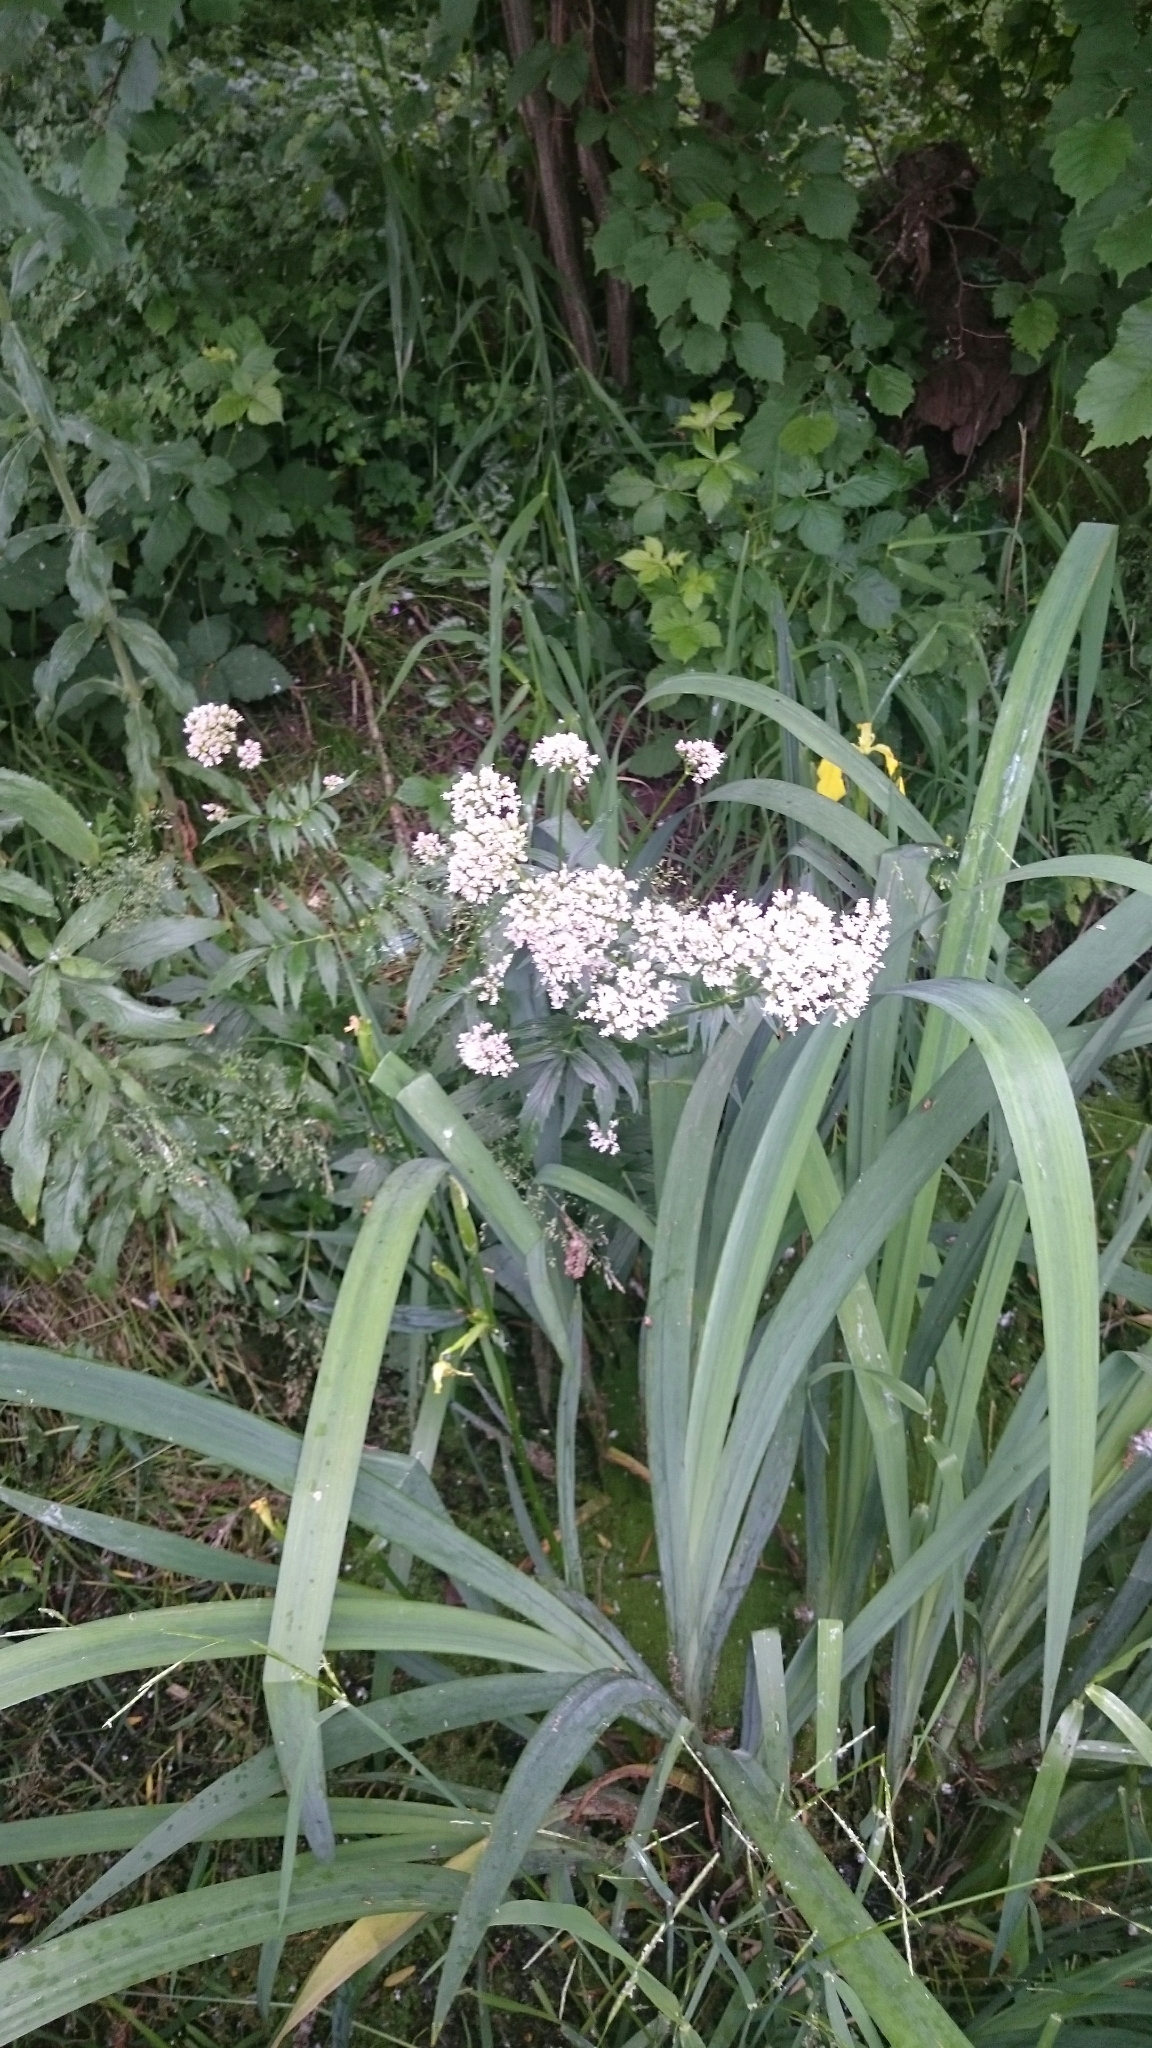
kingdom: Plantae
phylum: Tracheophyta
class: Magnoliopsida
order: Dipsacales
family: Caprifoliaceae
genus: Valeriana
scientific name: Valeriana officinalis
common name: Common valerian
